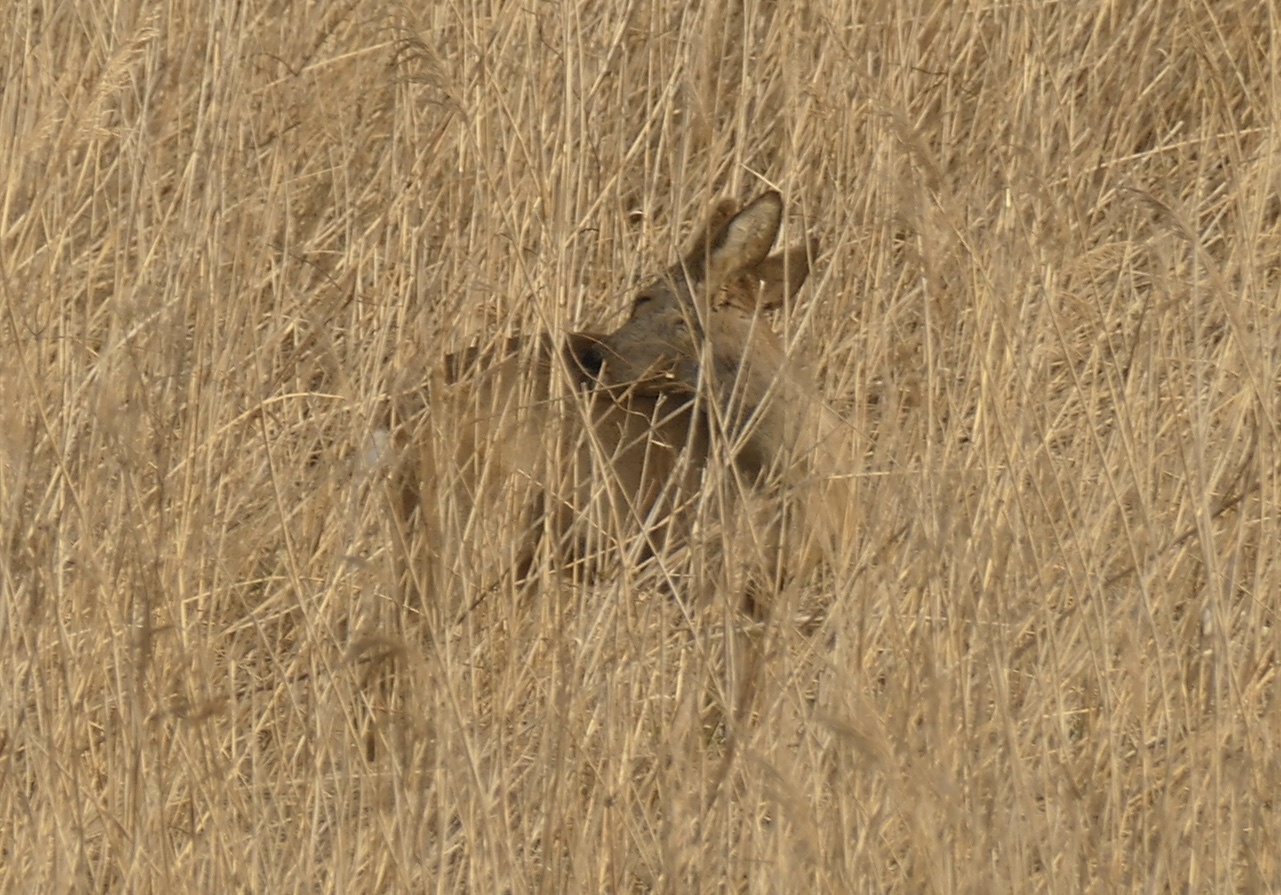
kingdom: Animalia
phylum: Chordata
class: Mammalia
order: Artiodactyla
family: Cervidae
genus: Capreolus
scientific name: Capreolus capreolus
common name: Western roe deer
